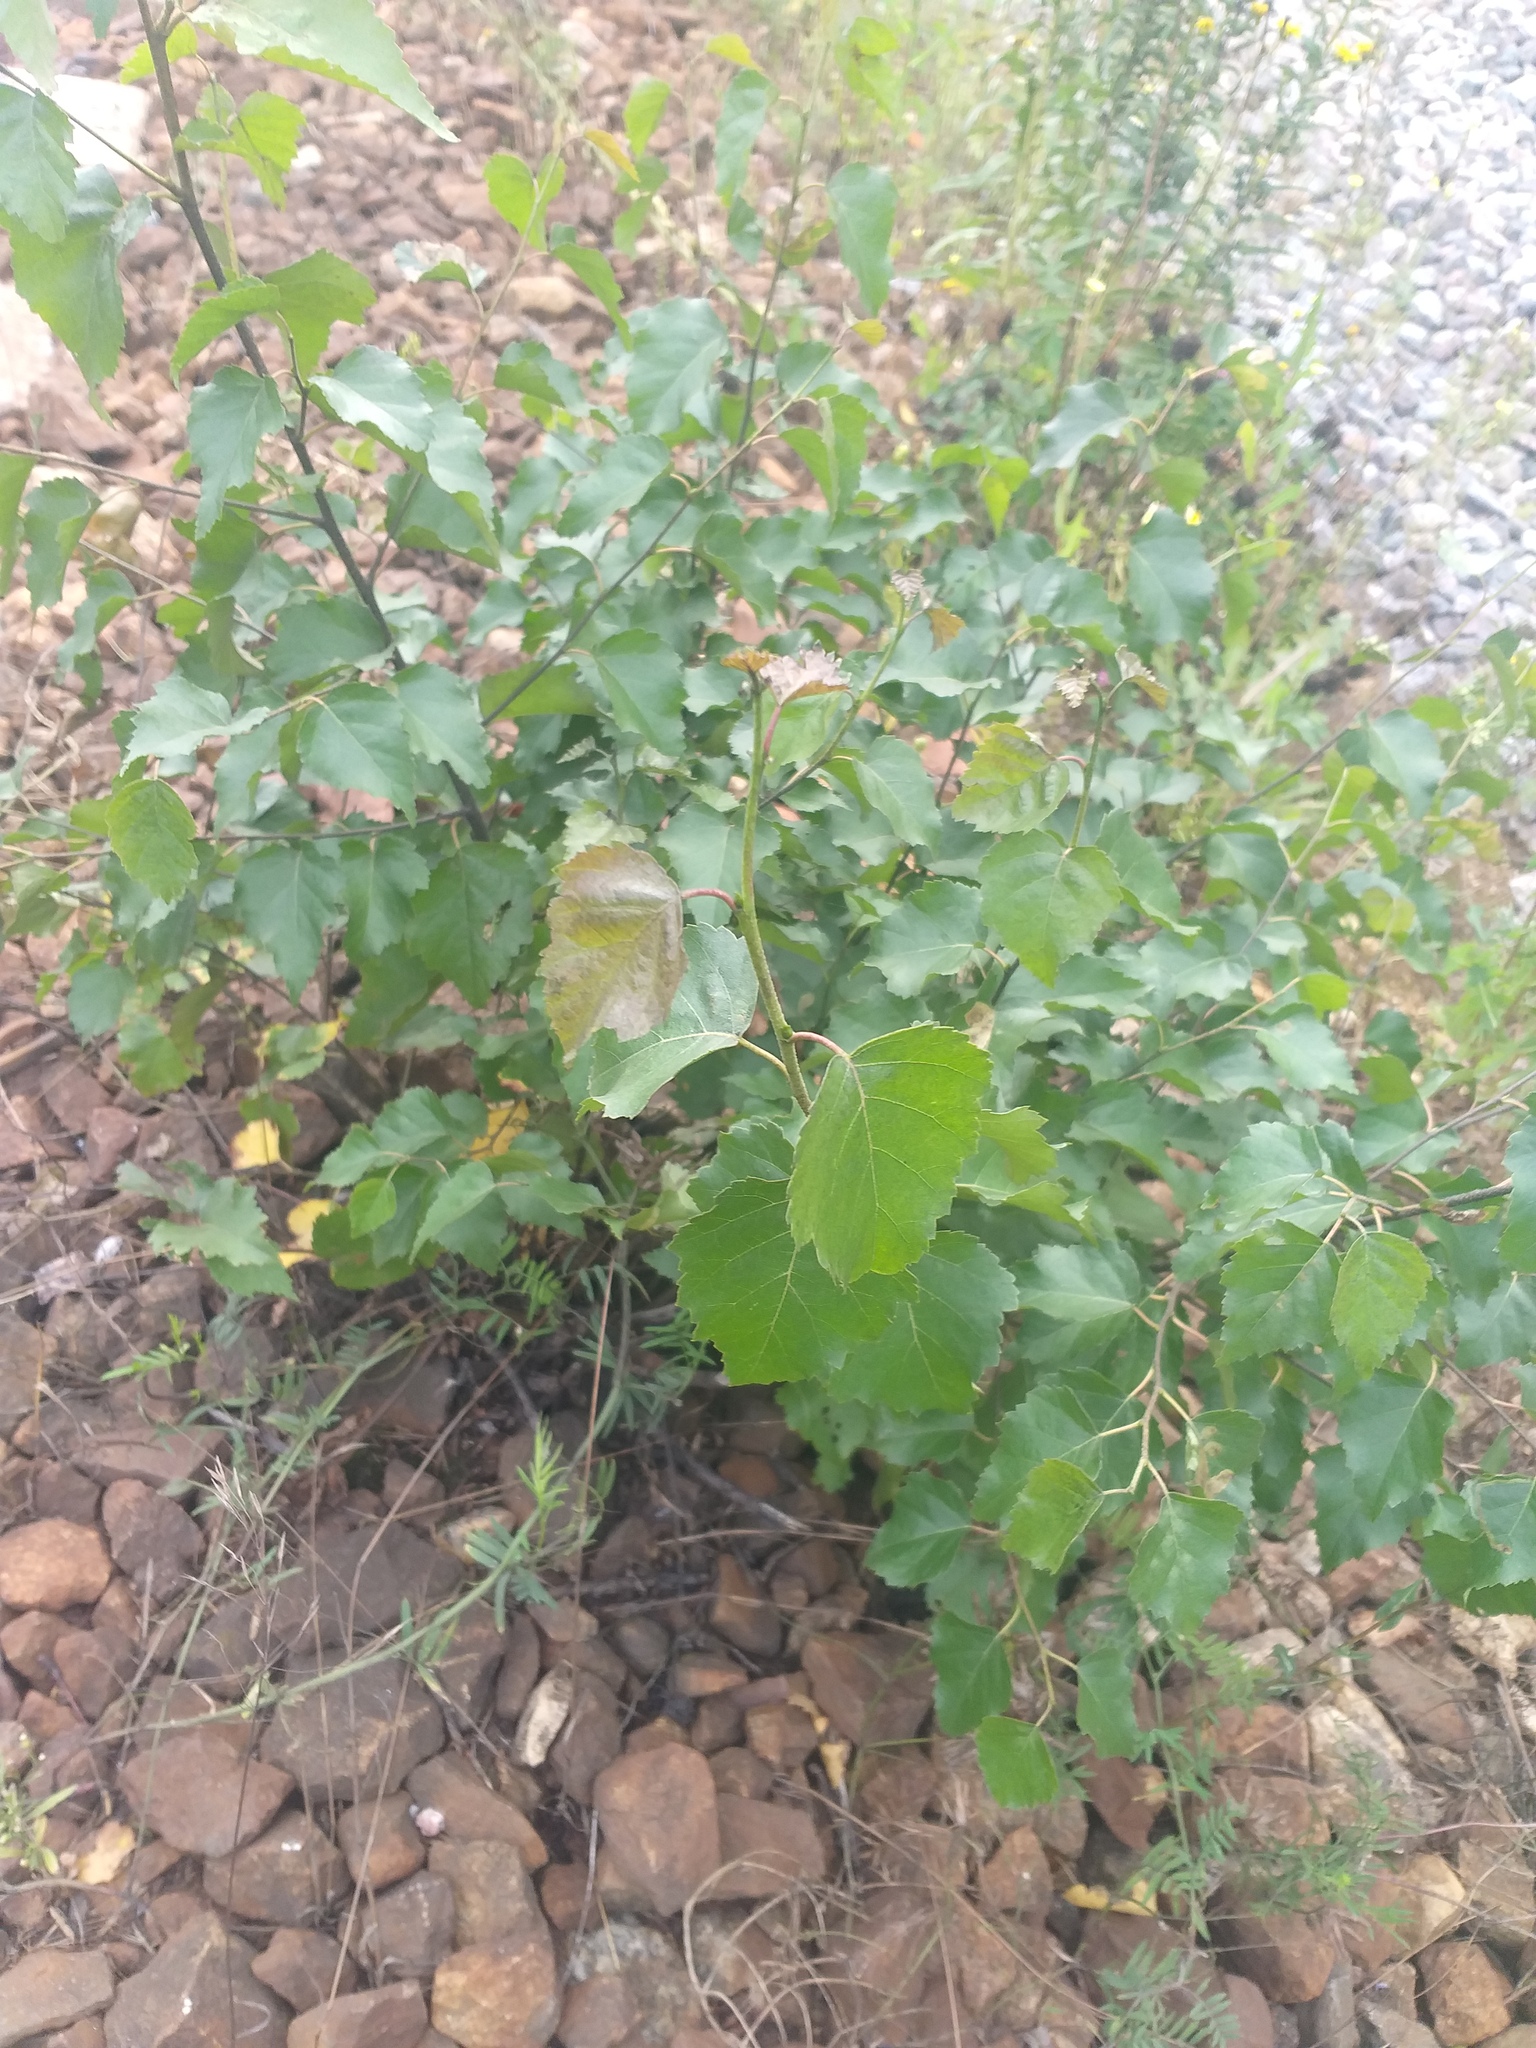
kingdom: Plantae
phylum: Tracheophyta
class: Magnoliopsida
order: Fagales
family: Betulaceae
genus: Betula
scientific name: Betula pubescens
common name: Downy birch
